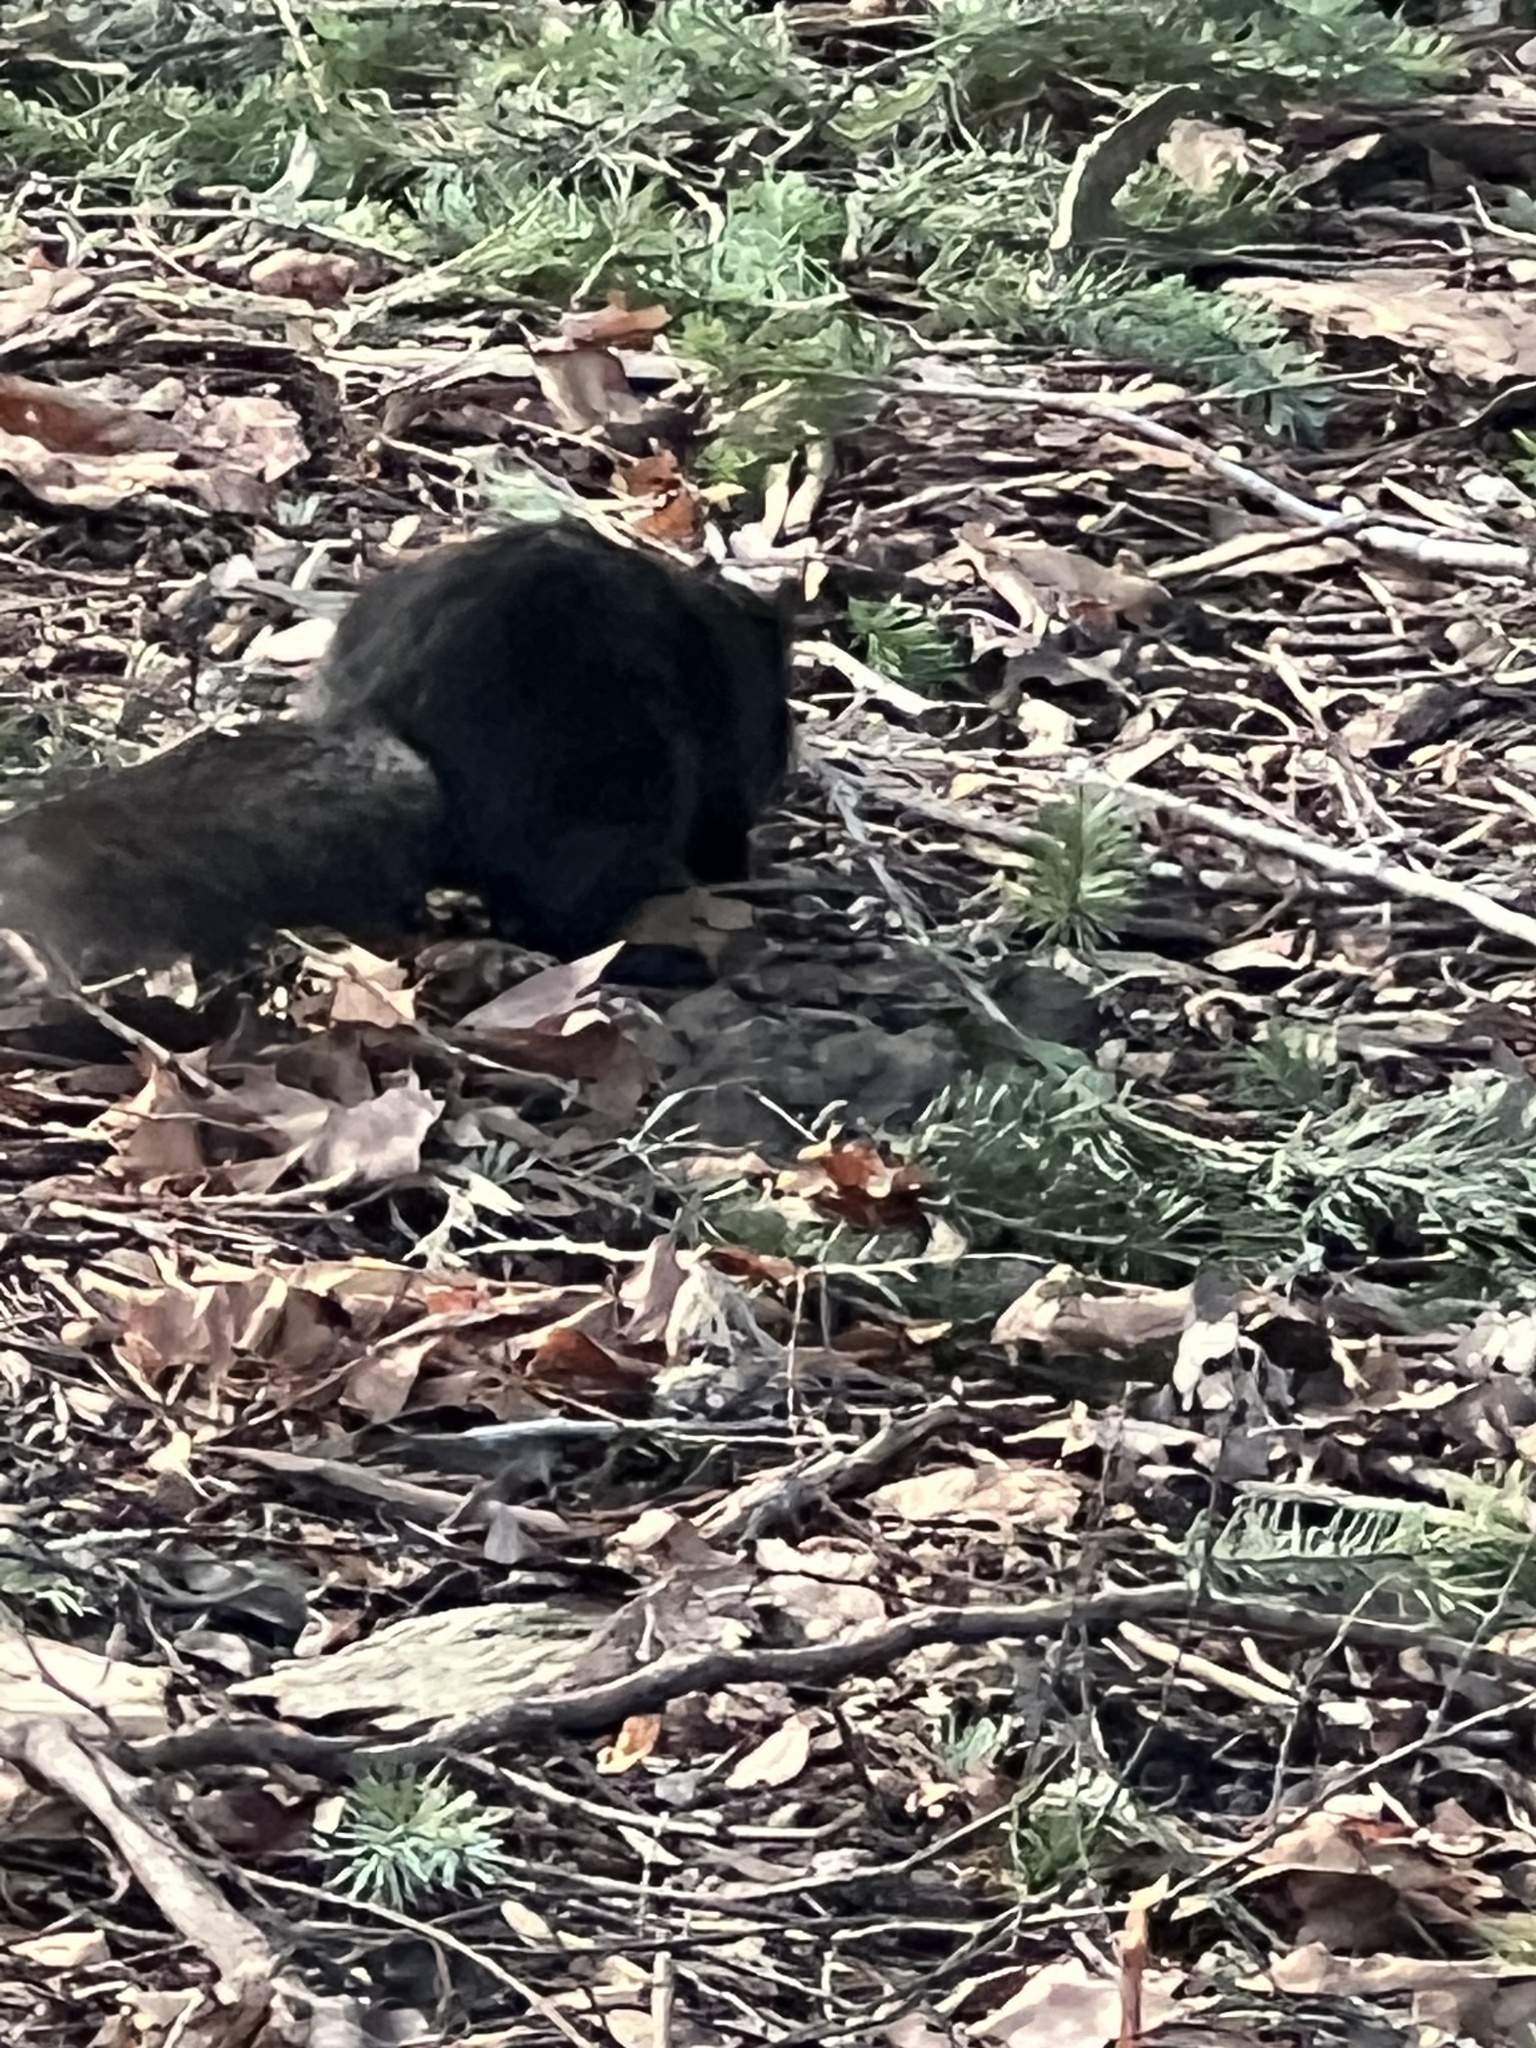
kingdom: Animalia
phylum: Chordata
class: Mammalia
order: Rodentia
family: Sciuridae
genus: Sciurus
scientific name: Sciurus carolinensis
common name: Eastern gray squirrel
